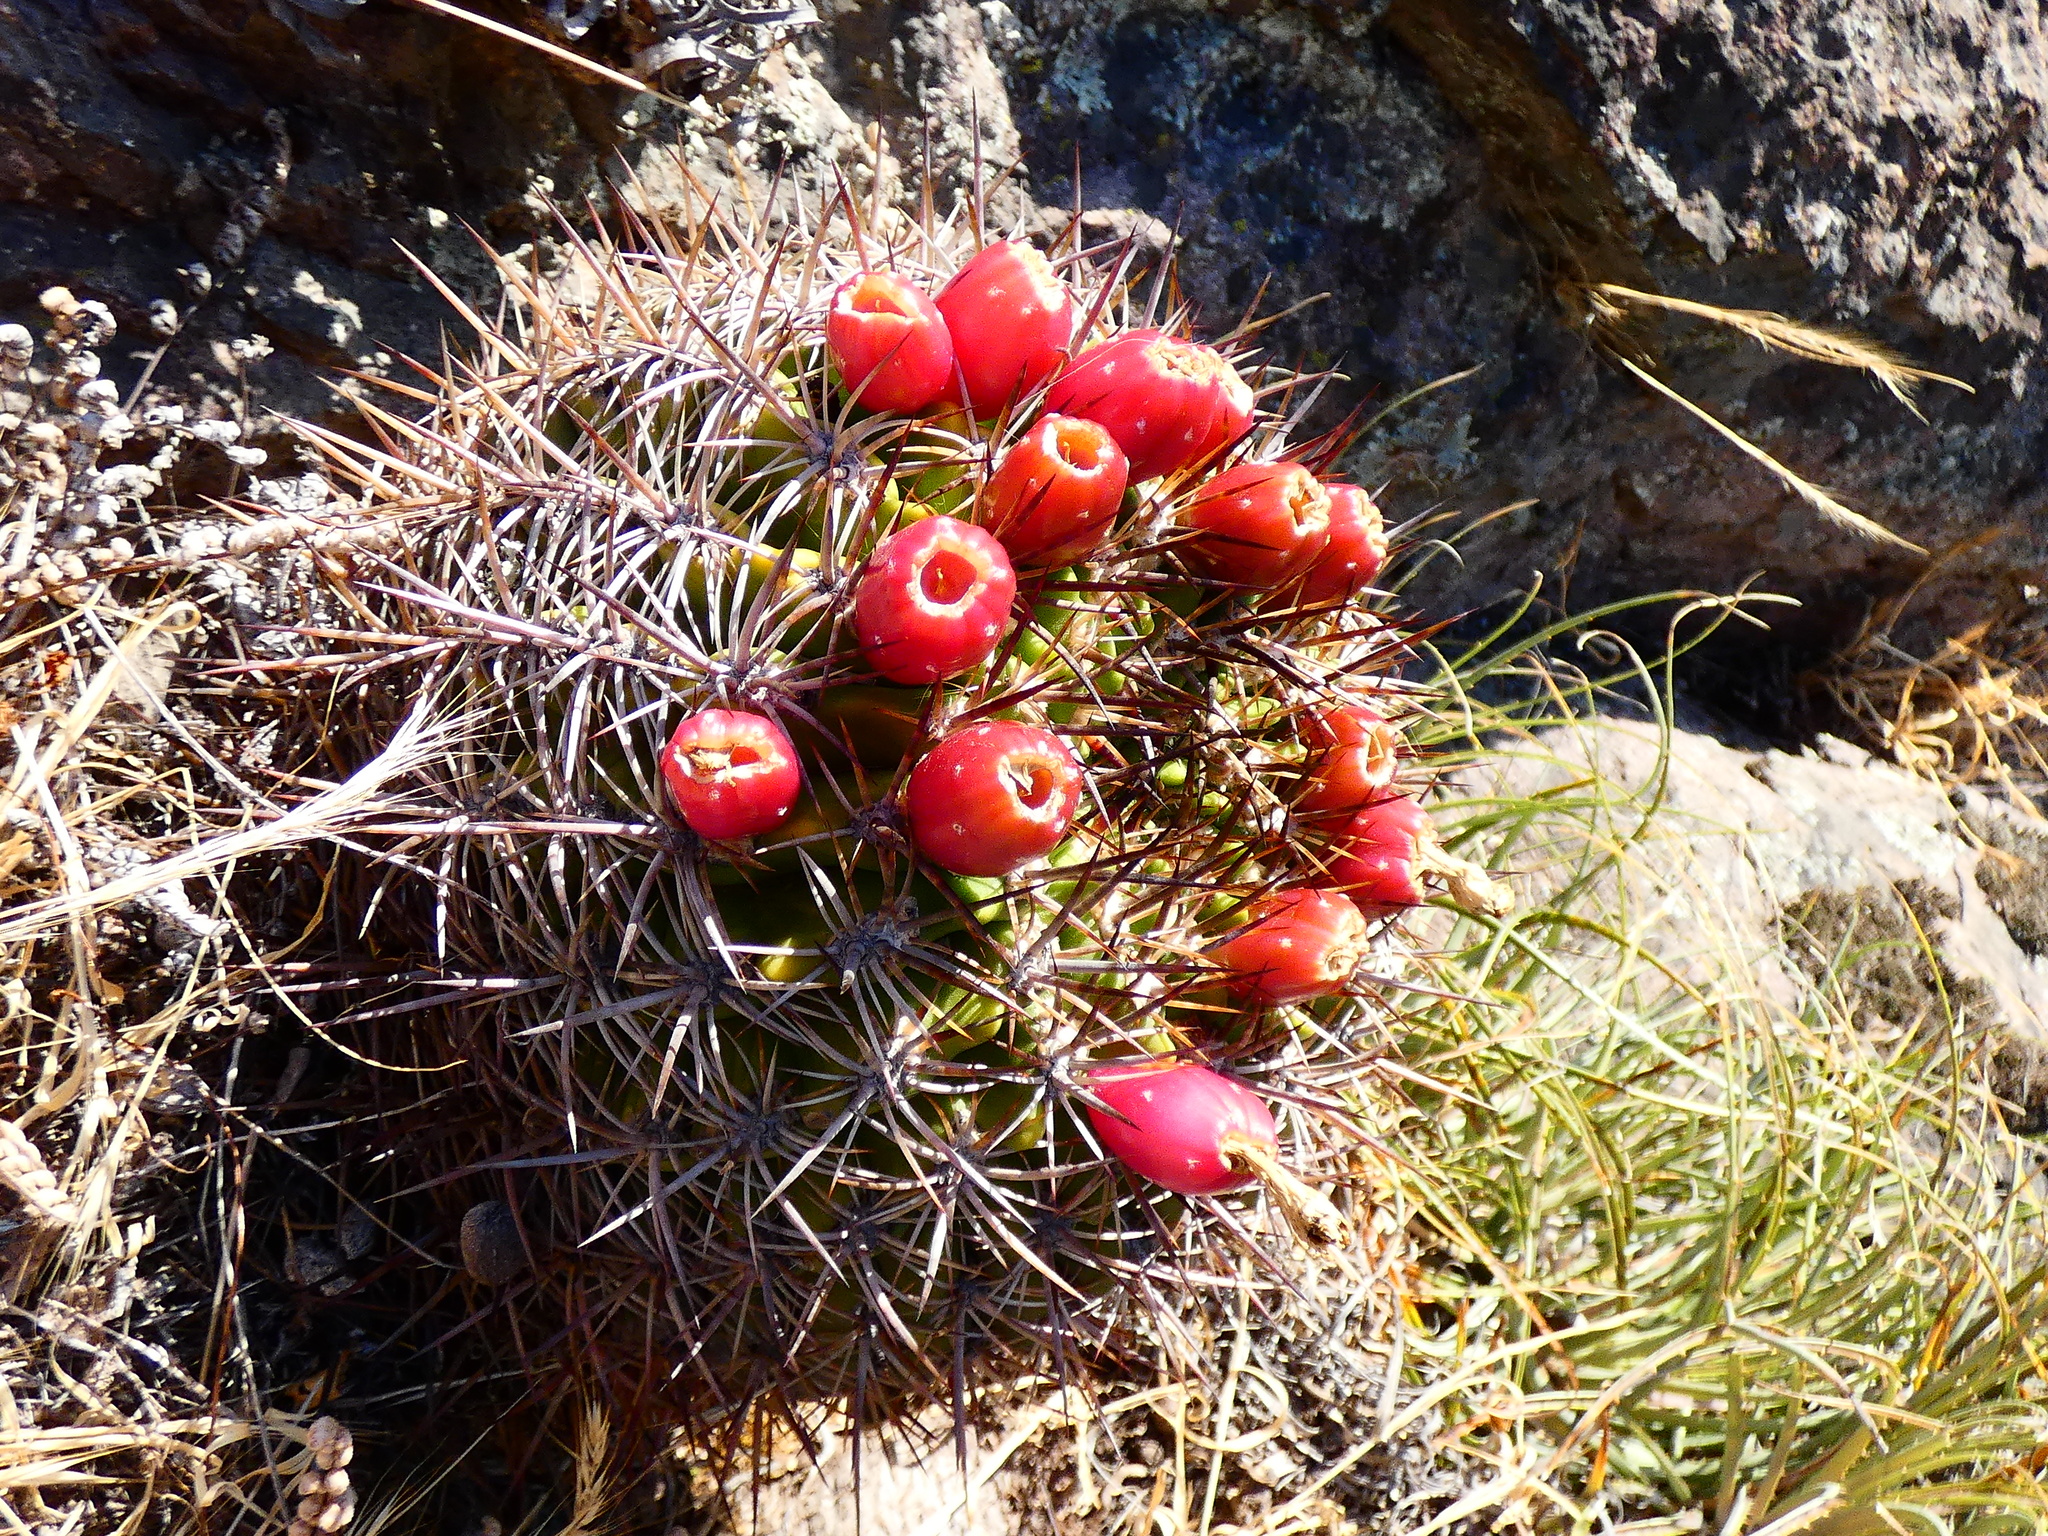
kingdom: Plantae
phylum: Tracheophyta
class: Magnoliopsida
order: Caryophyllales
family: Cactaceae
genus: Eriosyce
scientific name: Eriosyce castanea
